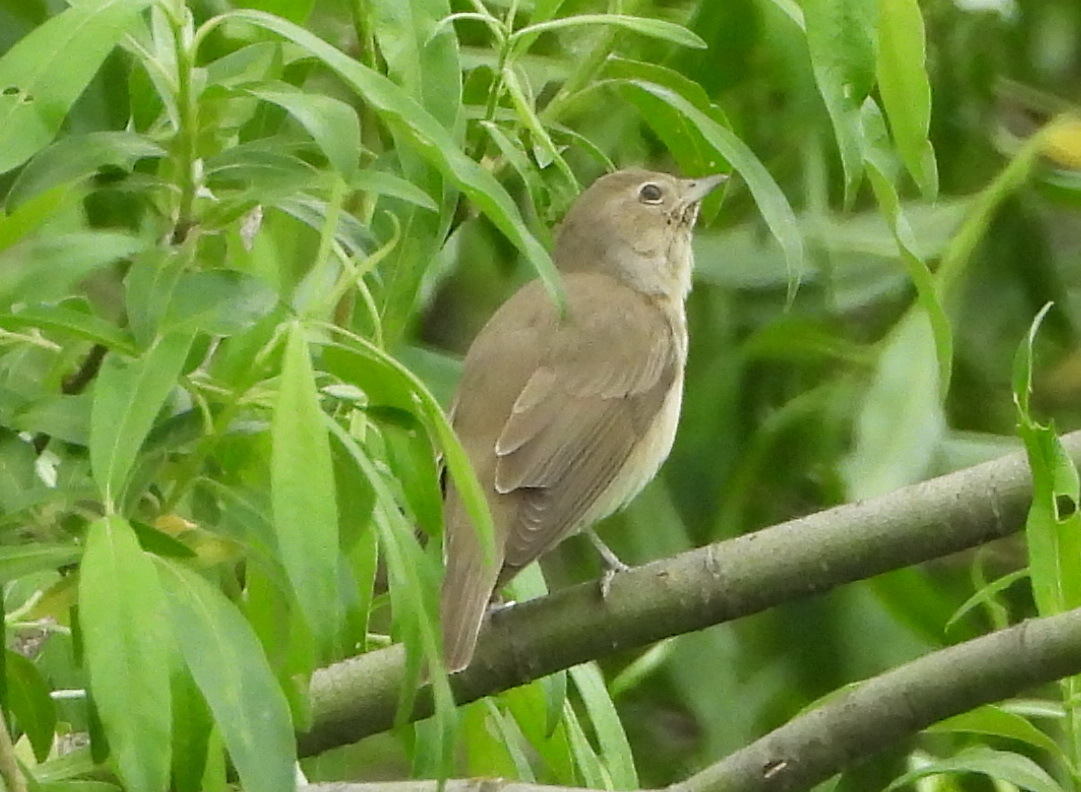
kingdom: Animalia
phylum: Chordata
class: Aves
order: Passeriformes
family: Sylviidae
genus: Sylvia
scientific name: Sylvia borin
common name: Garden warbler
